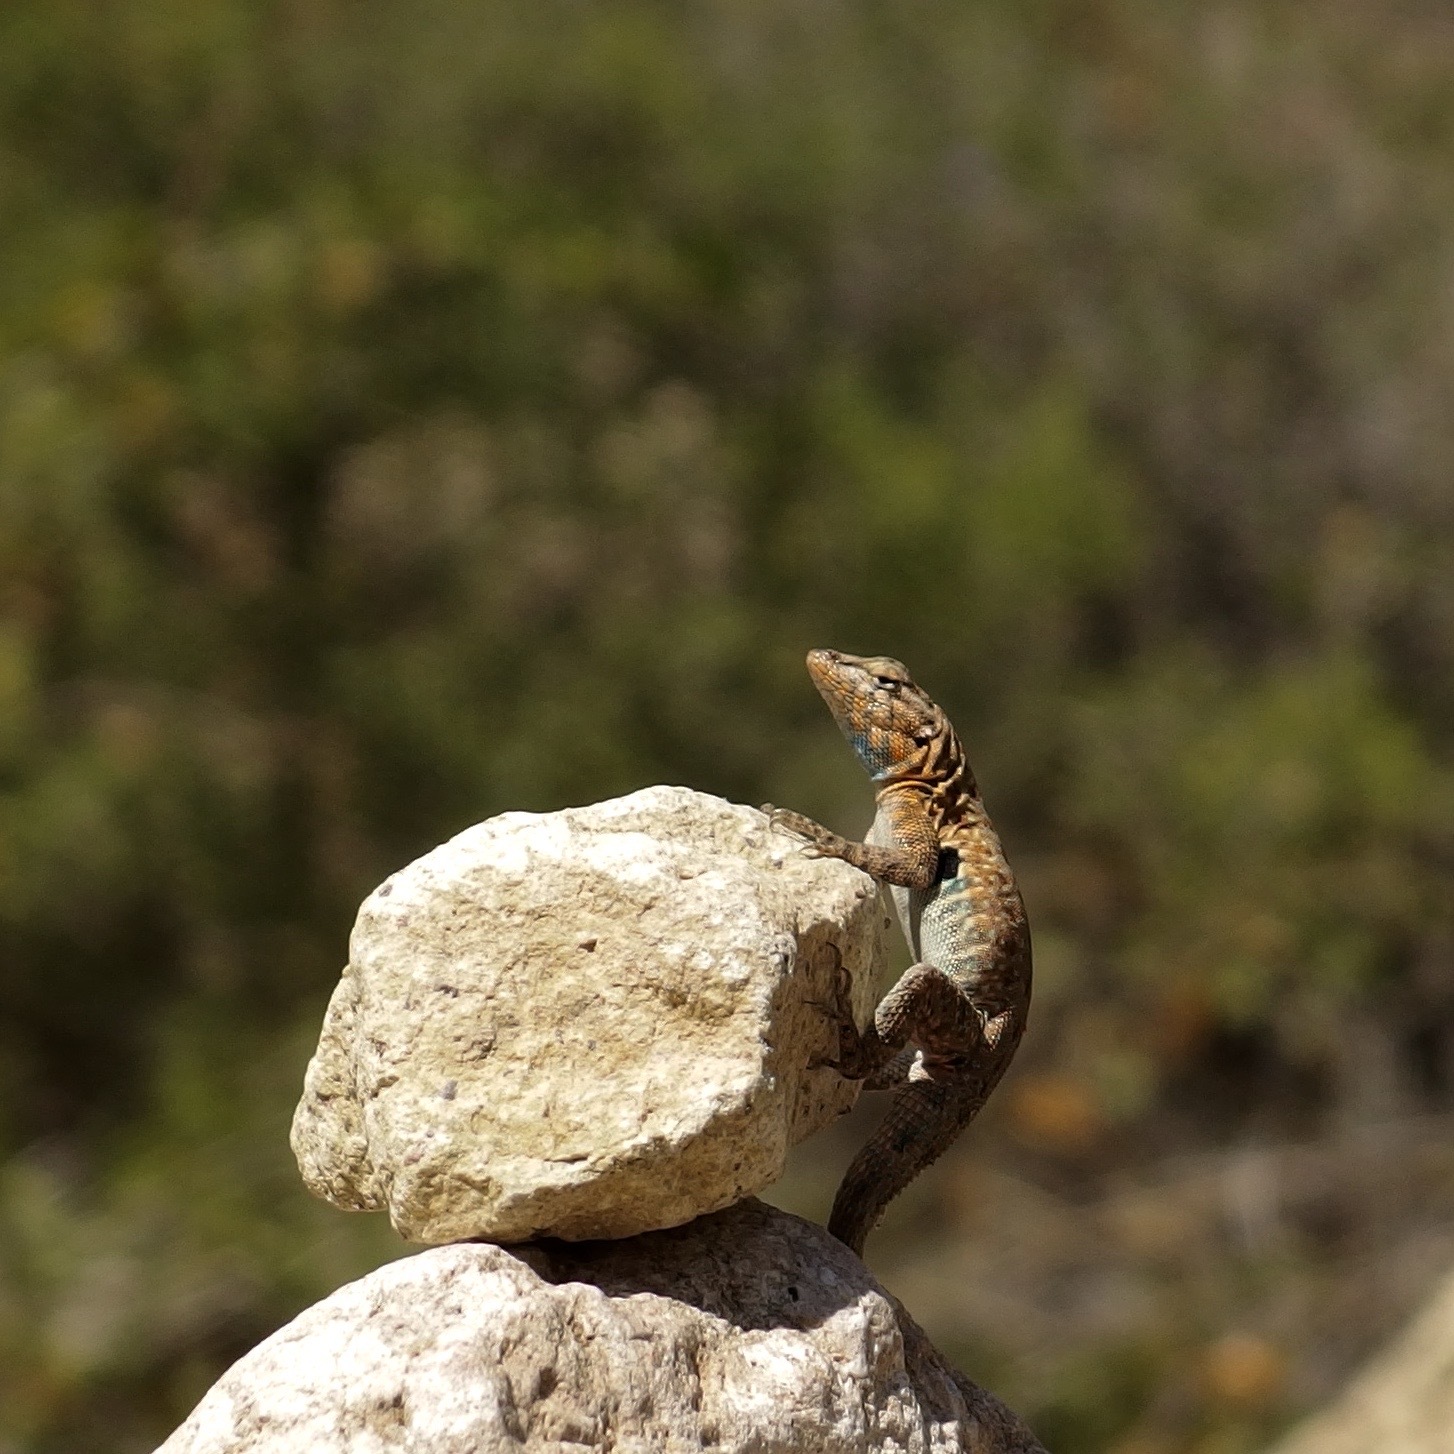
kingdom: Animalia
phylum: Chordata
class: Squamata
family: Phrynosomatidae
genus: Uta
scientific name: Uta stansburiana
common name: Side-blotched lizard
